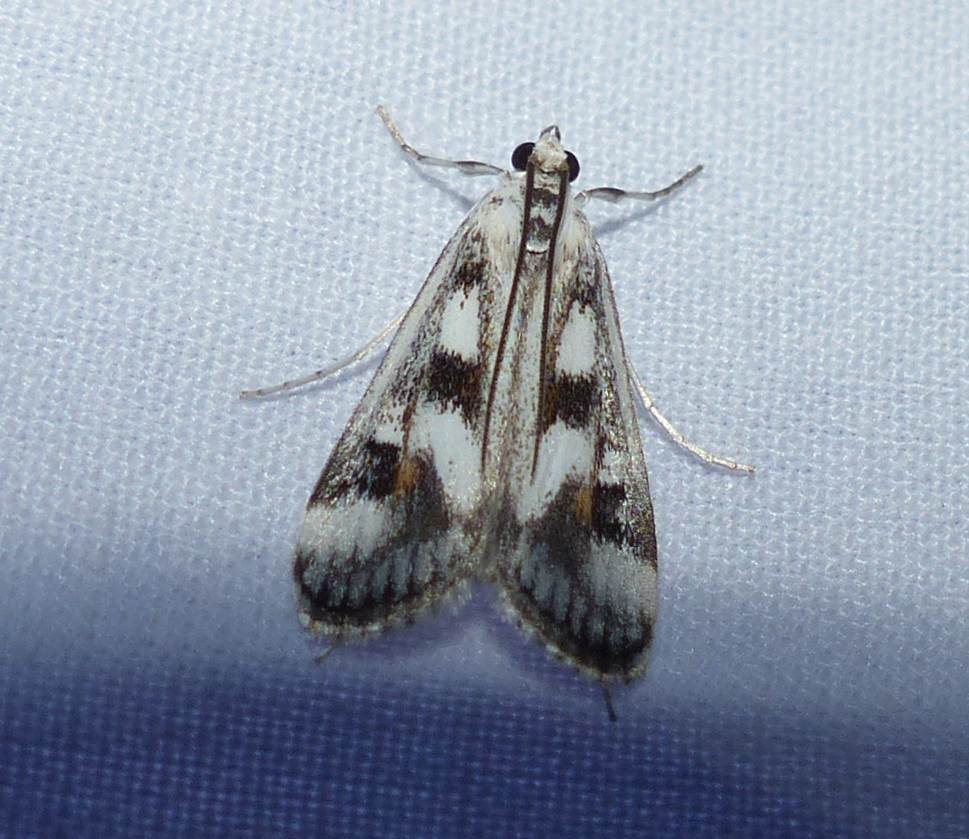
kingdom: Animalia
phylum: Arthropoda
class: Insecta
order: Lepidoptera
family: Crambidae
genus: Parapoynx
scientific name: Parapoynx maculalis
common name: Polymorphic pondweed moth
